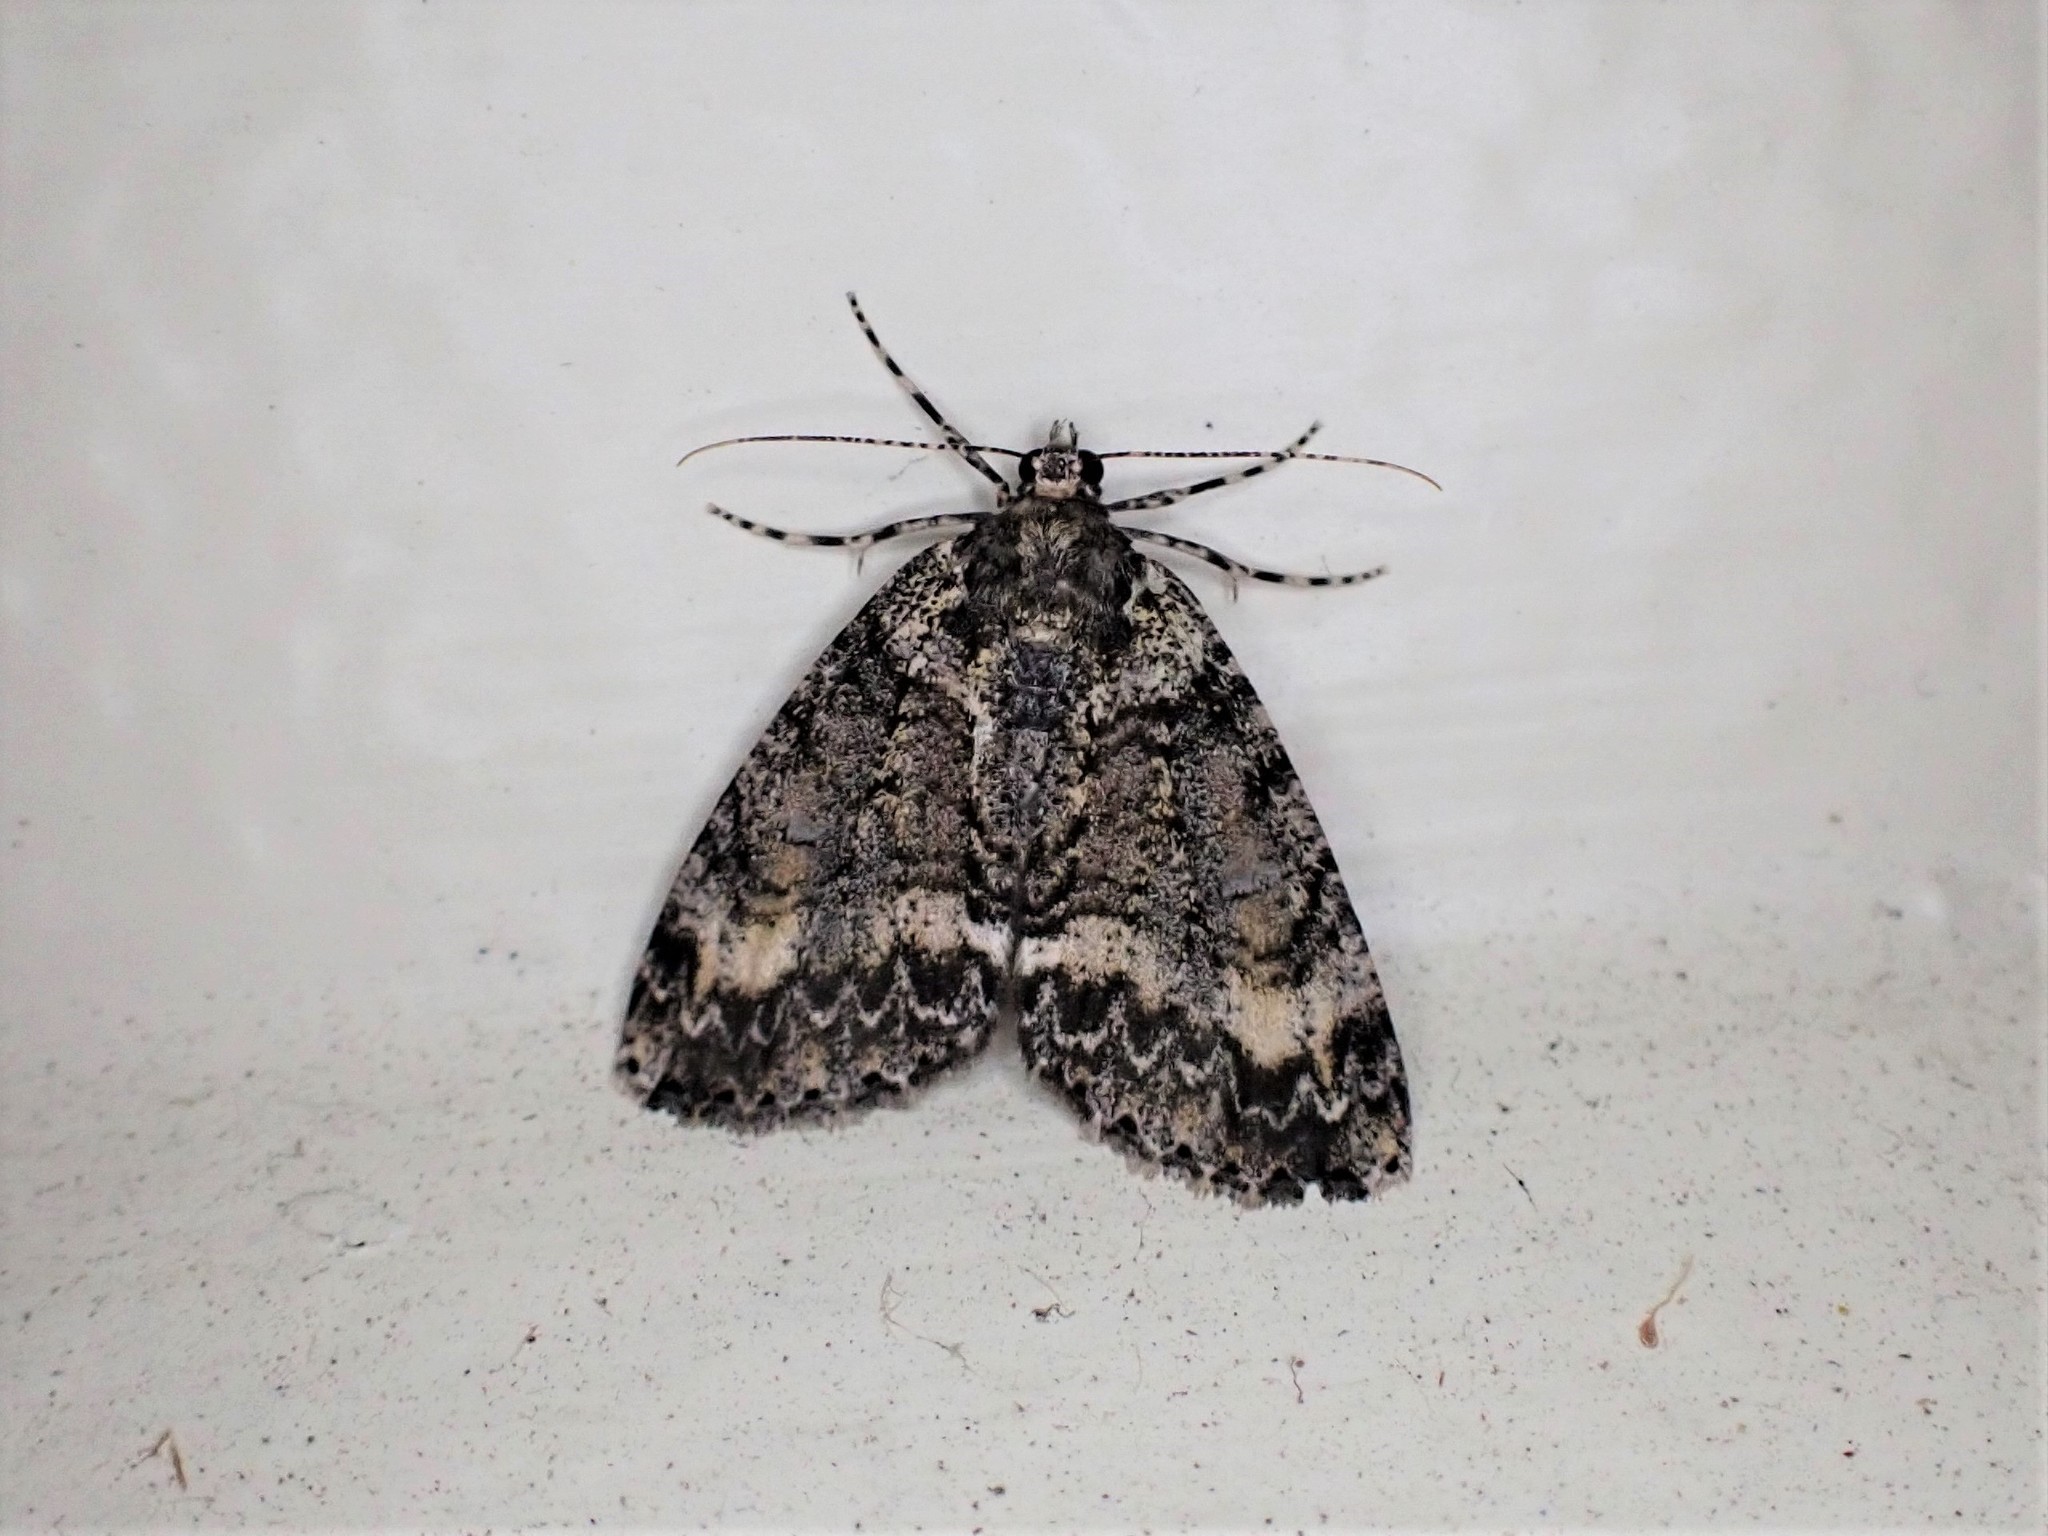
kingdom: Animalia
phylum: Arthropoda
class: Insecta
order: Lepidoptera
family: Geometridae
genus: Pseudocoremia
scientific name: Pseudocoremia suavis
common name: Common forest looper
